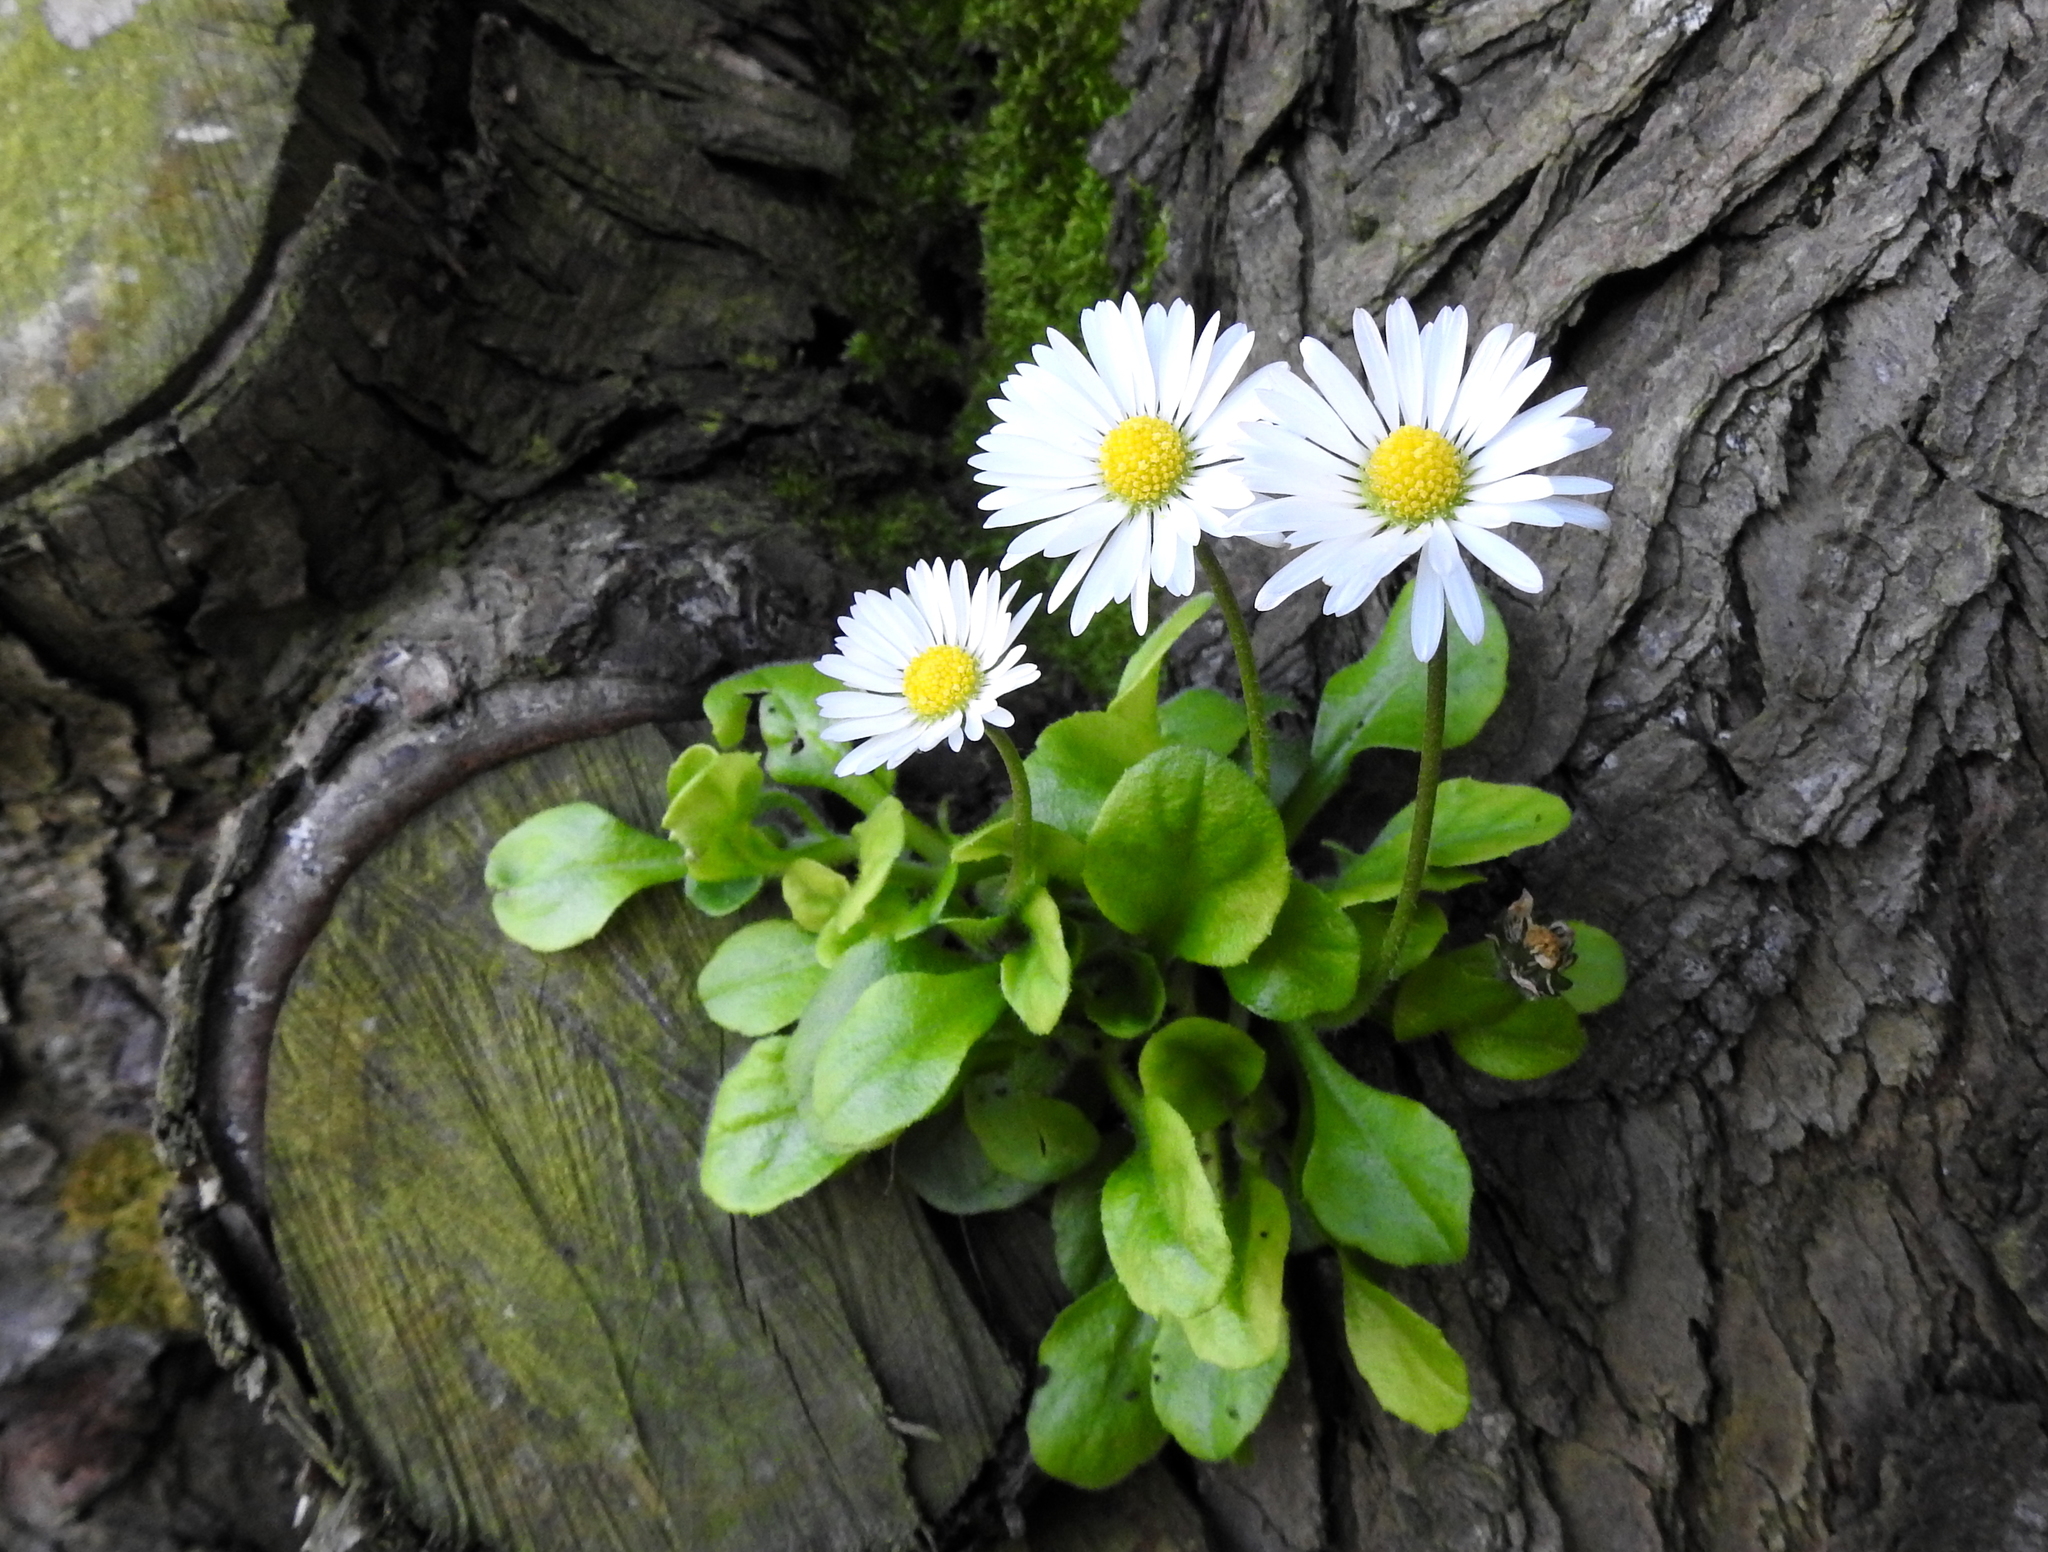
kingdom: Plantae
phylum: Tracheophyta
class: Magnoliopsida
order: Asterales
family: Asteraceae
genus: Bellis
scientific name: Bellis perennis
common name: Lawndaisy
